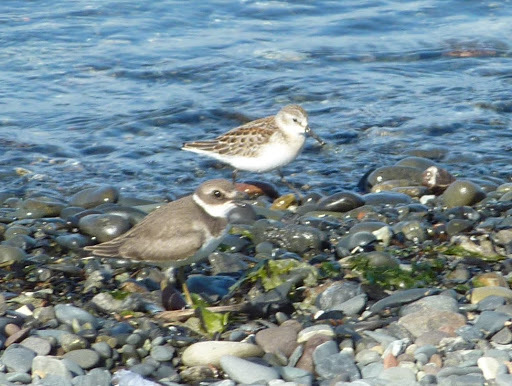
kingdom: Animalia
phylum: Chordata
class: Aves
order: Charadriiformes
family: Charadriidae
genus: Charadrius
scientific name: Charadrius semipalmatus
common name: Semipalmated plover
